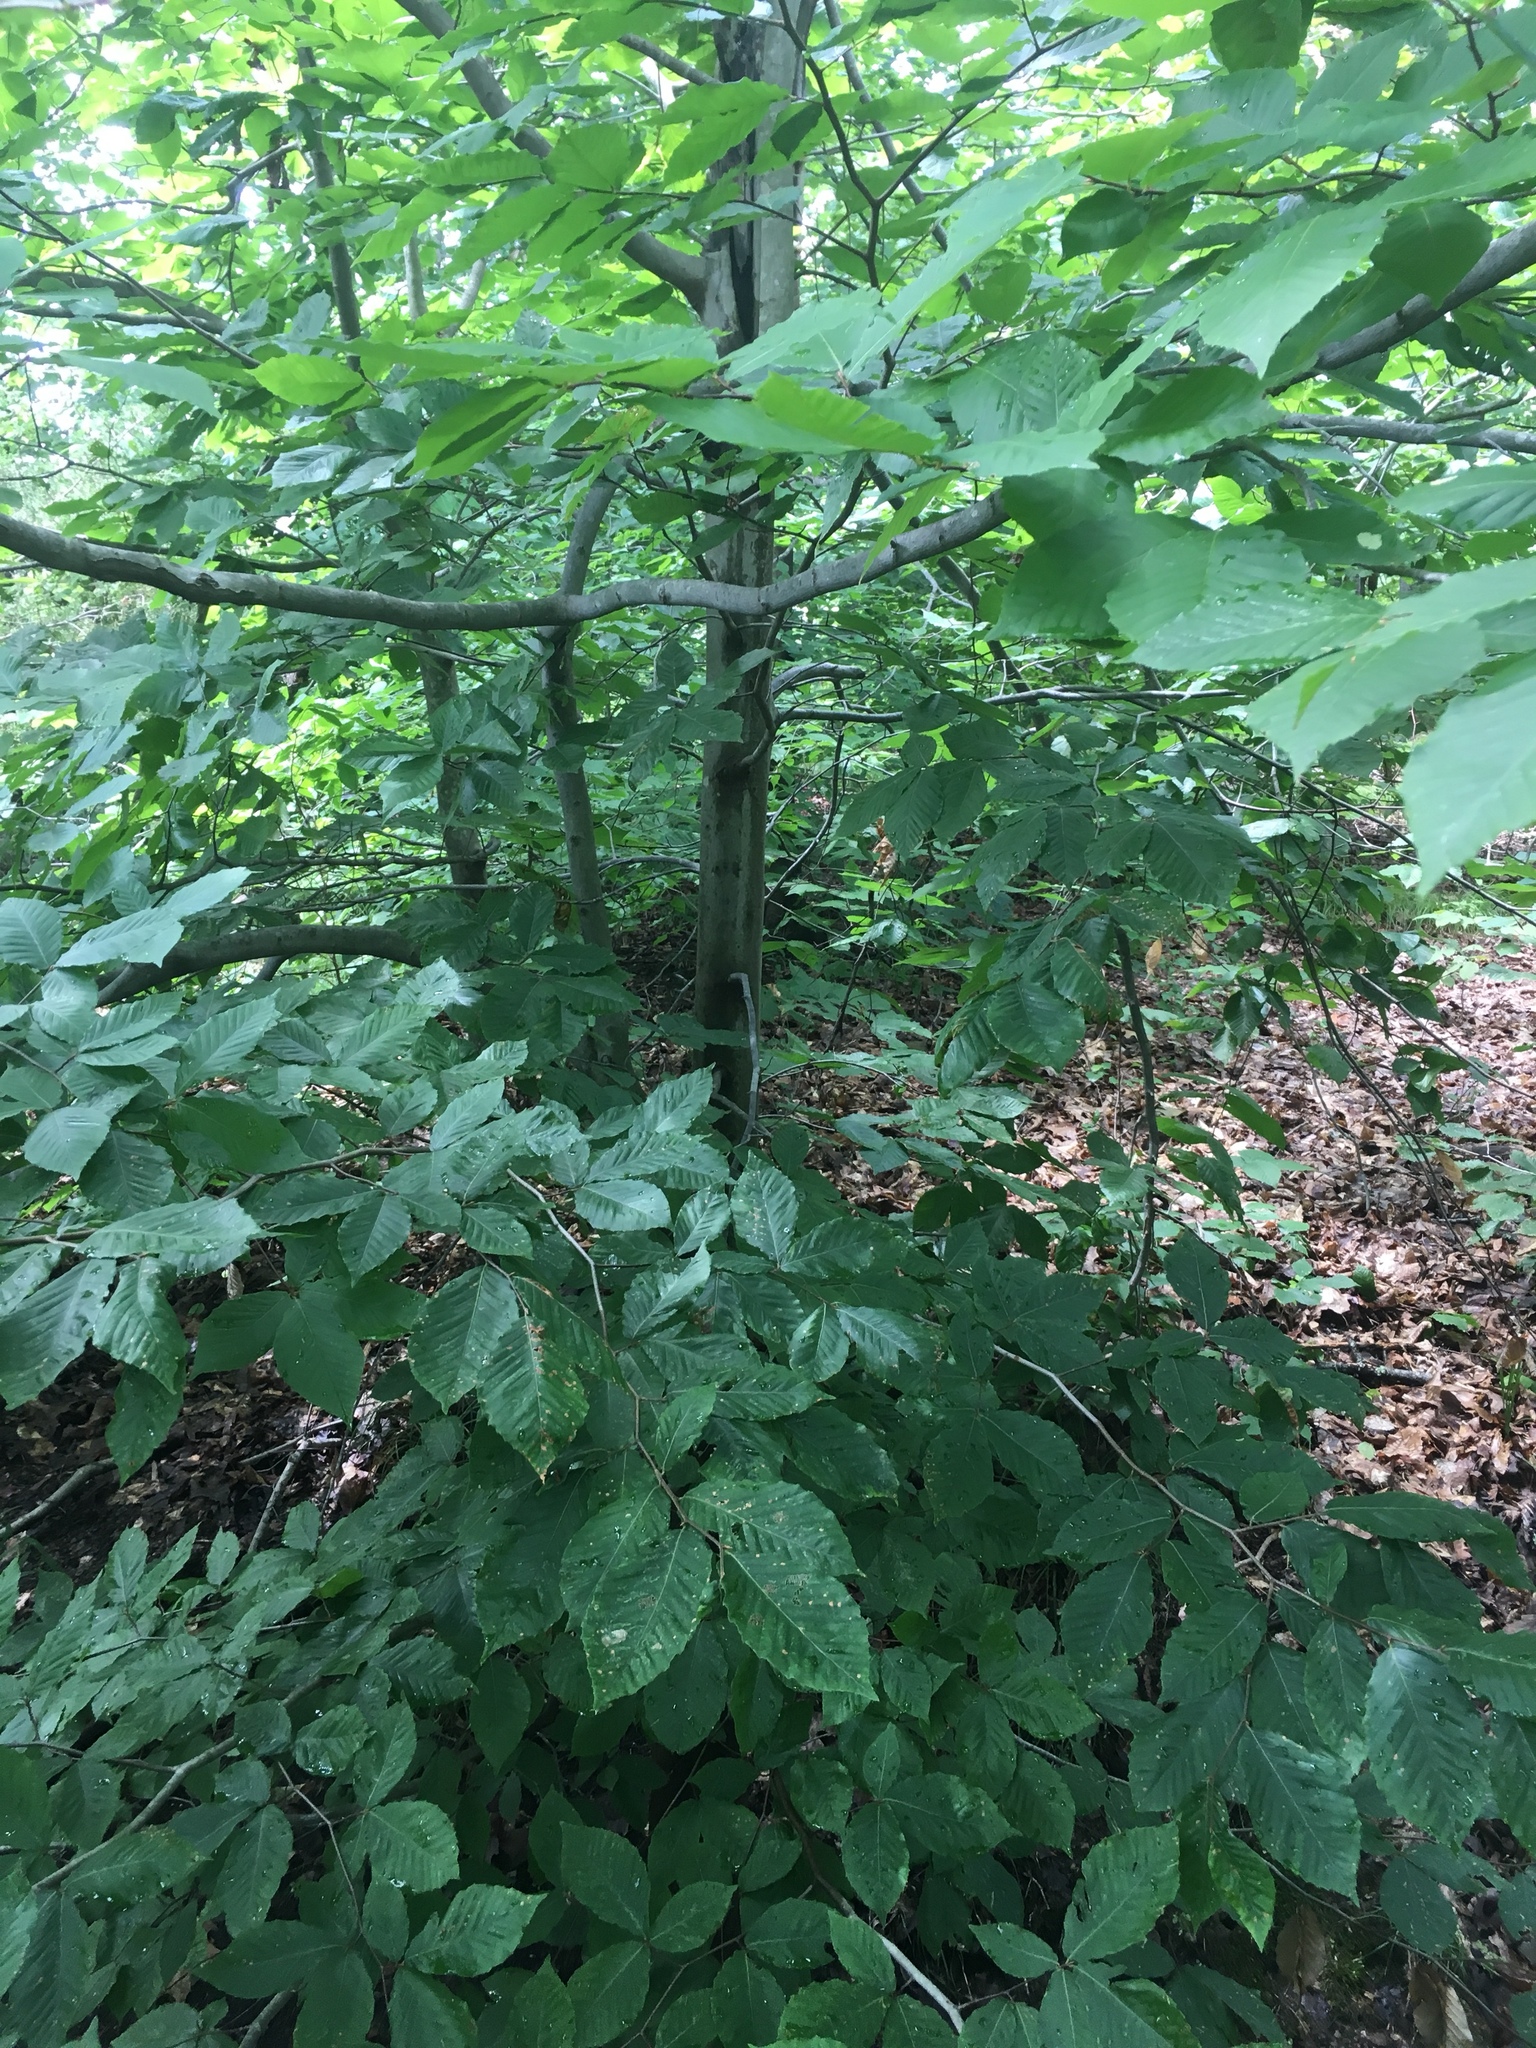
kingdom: Plantae
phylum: Tracheophyta
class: Magnoliopsida
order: Fagales
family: Fagaceae
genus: Fagus
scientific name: Fagus grandifolia
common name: American beech
